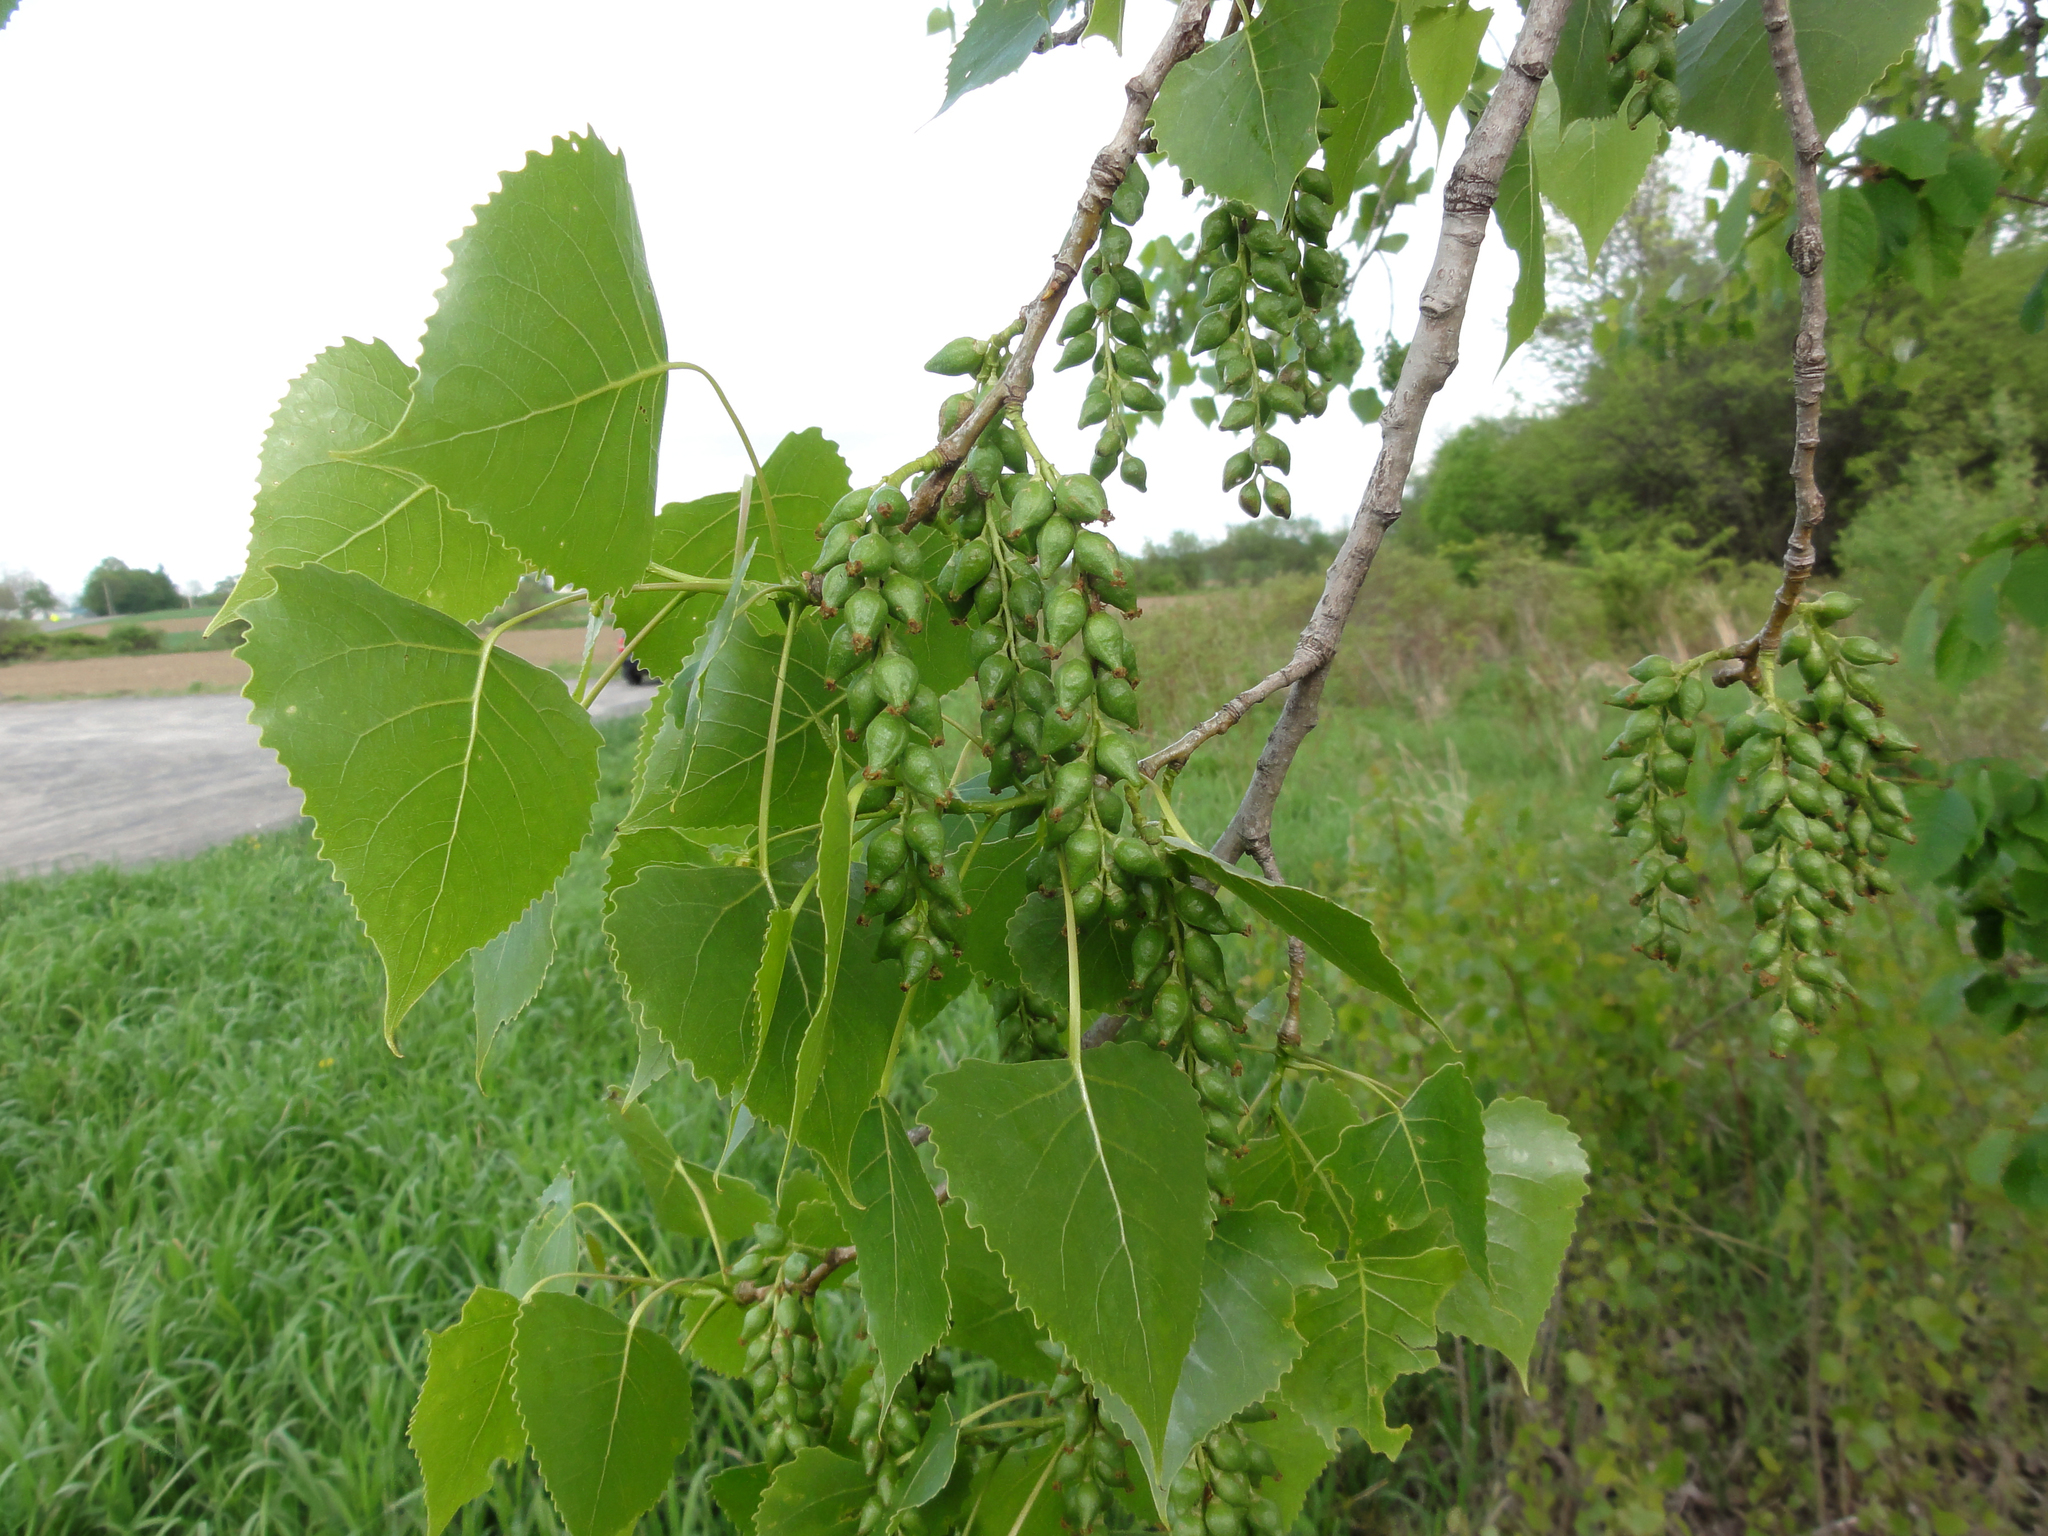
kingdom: Plantae
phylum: Tracheophyta
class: Magnoliopsida
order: Malpighiales
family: Salicaceae
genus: Populus
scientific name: Populus deltoides
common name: Eastern cottonwood
